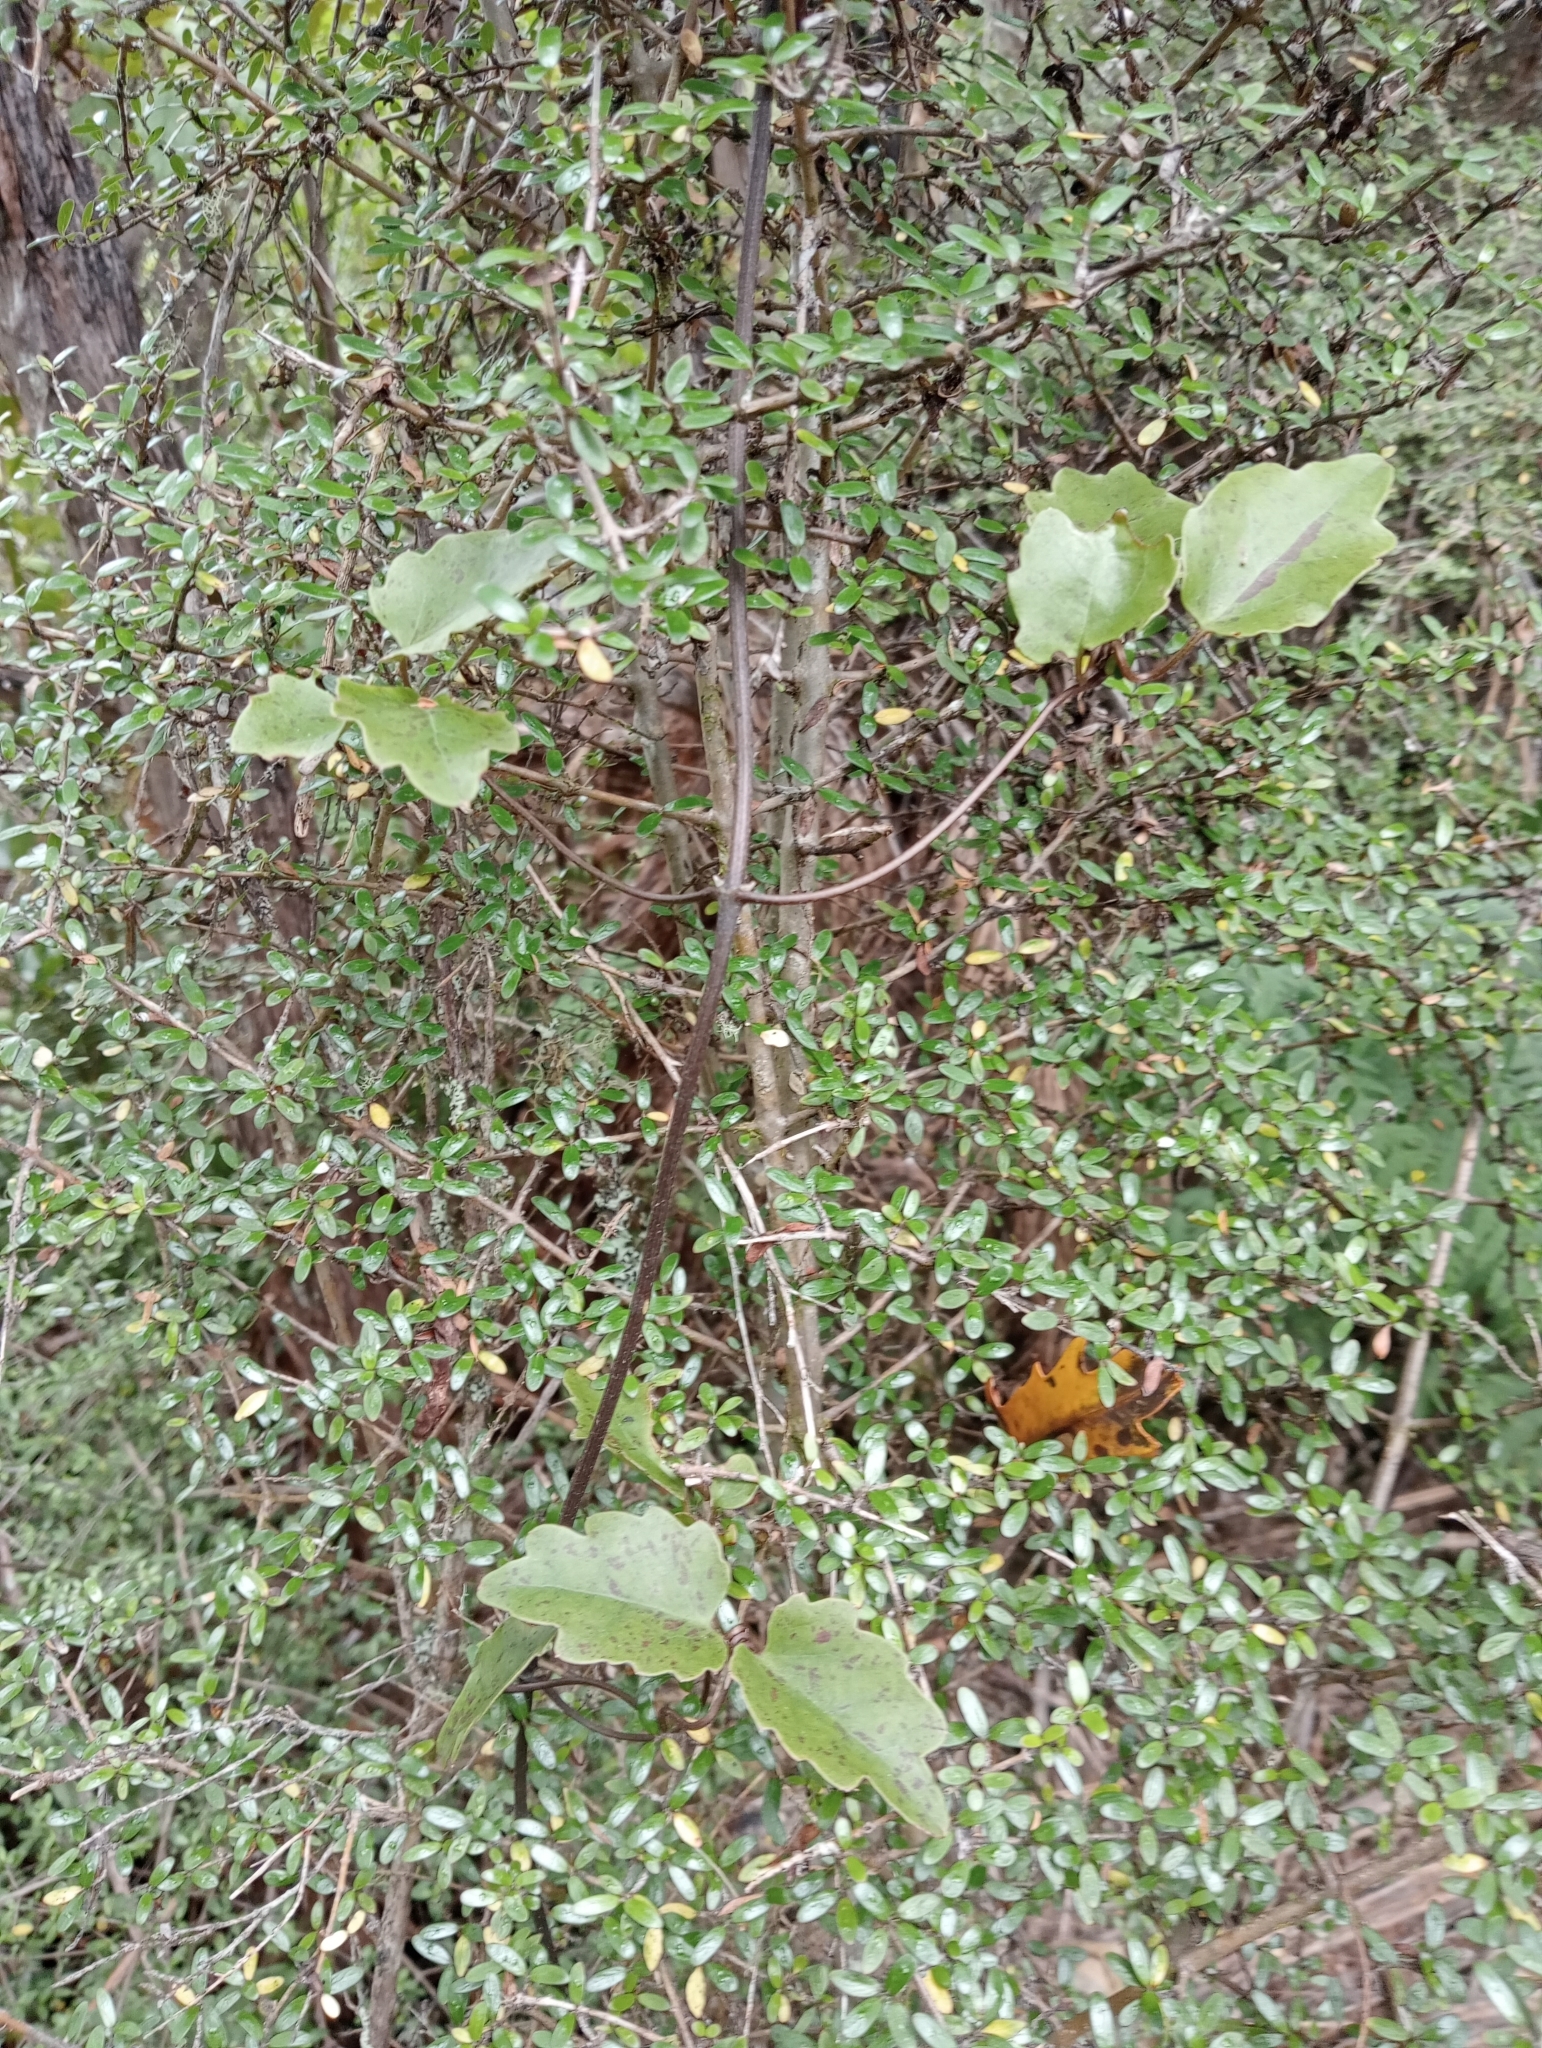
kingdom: Plantae
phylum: Tracheophyta
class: Magnoliopsida
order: Ranunculales
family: Ranunculaceae
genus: Clematis
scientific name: Clematis paniculata
